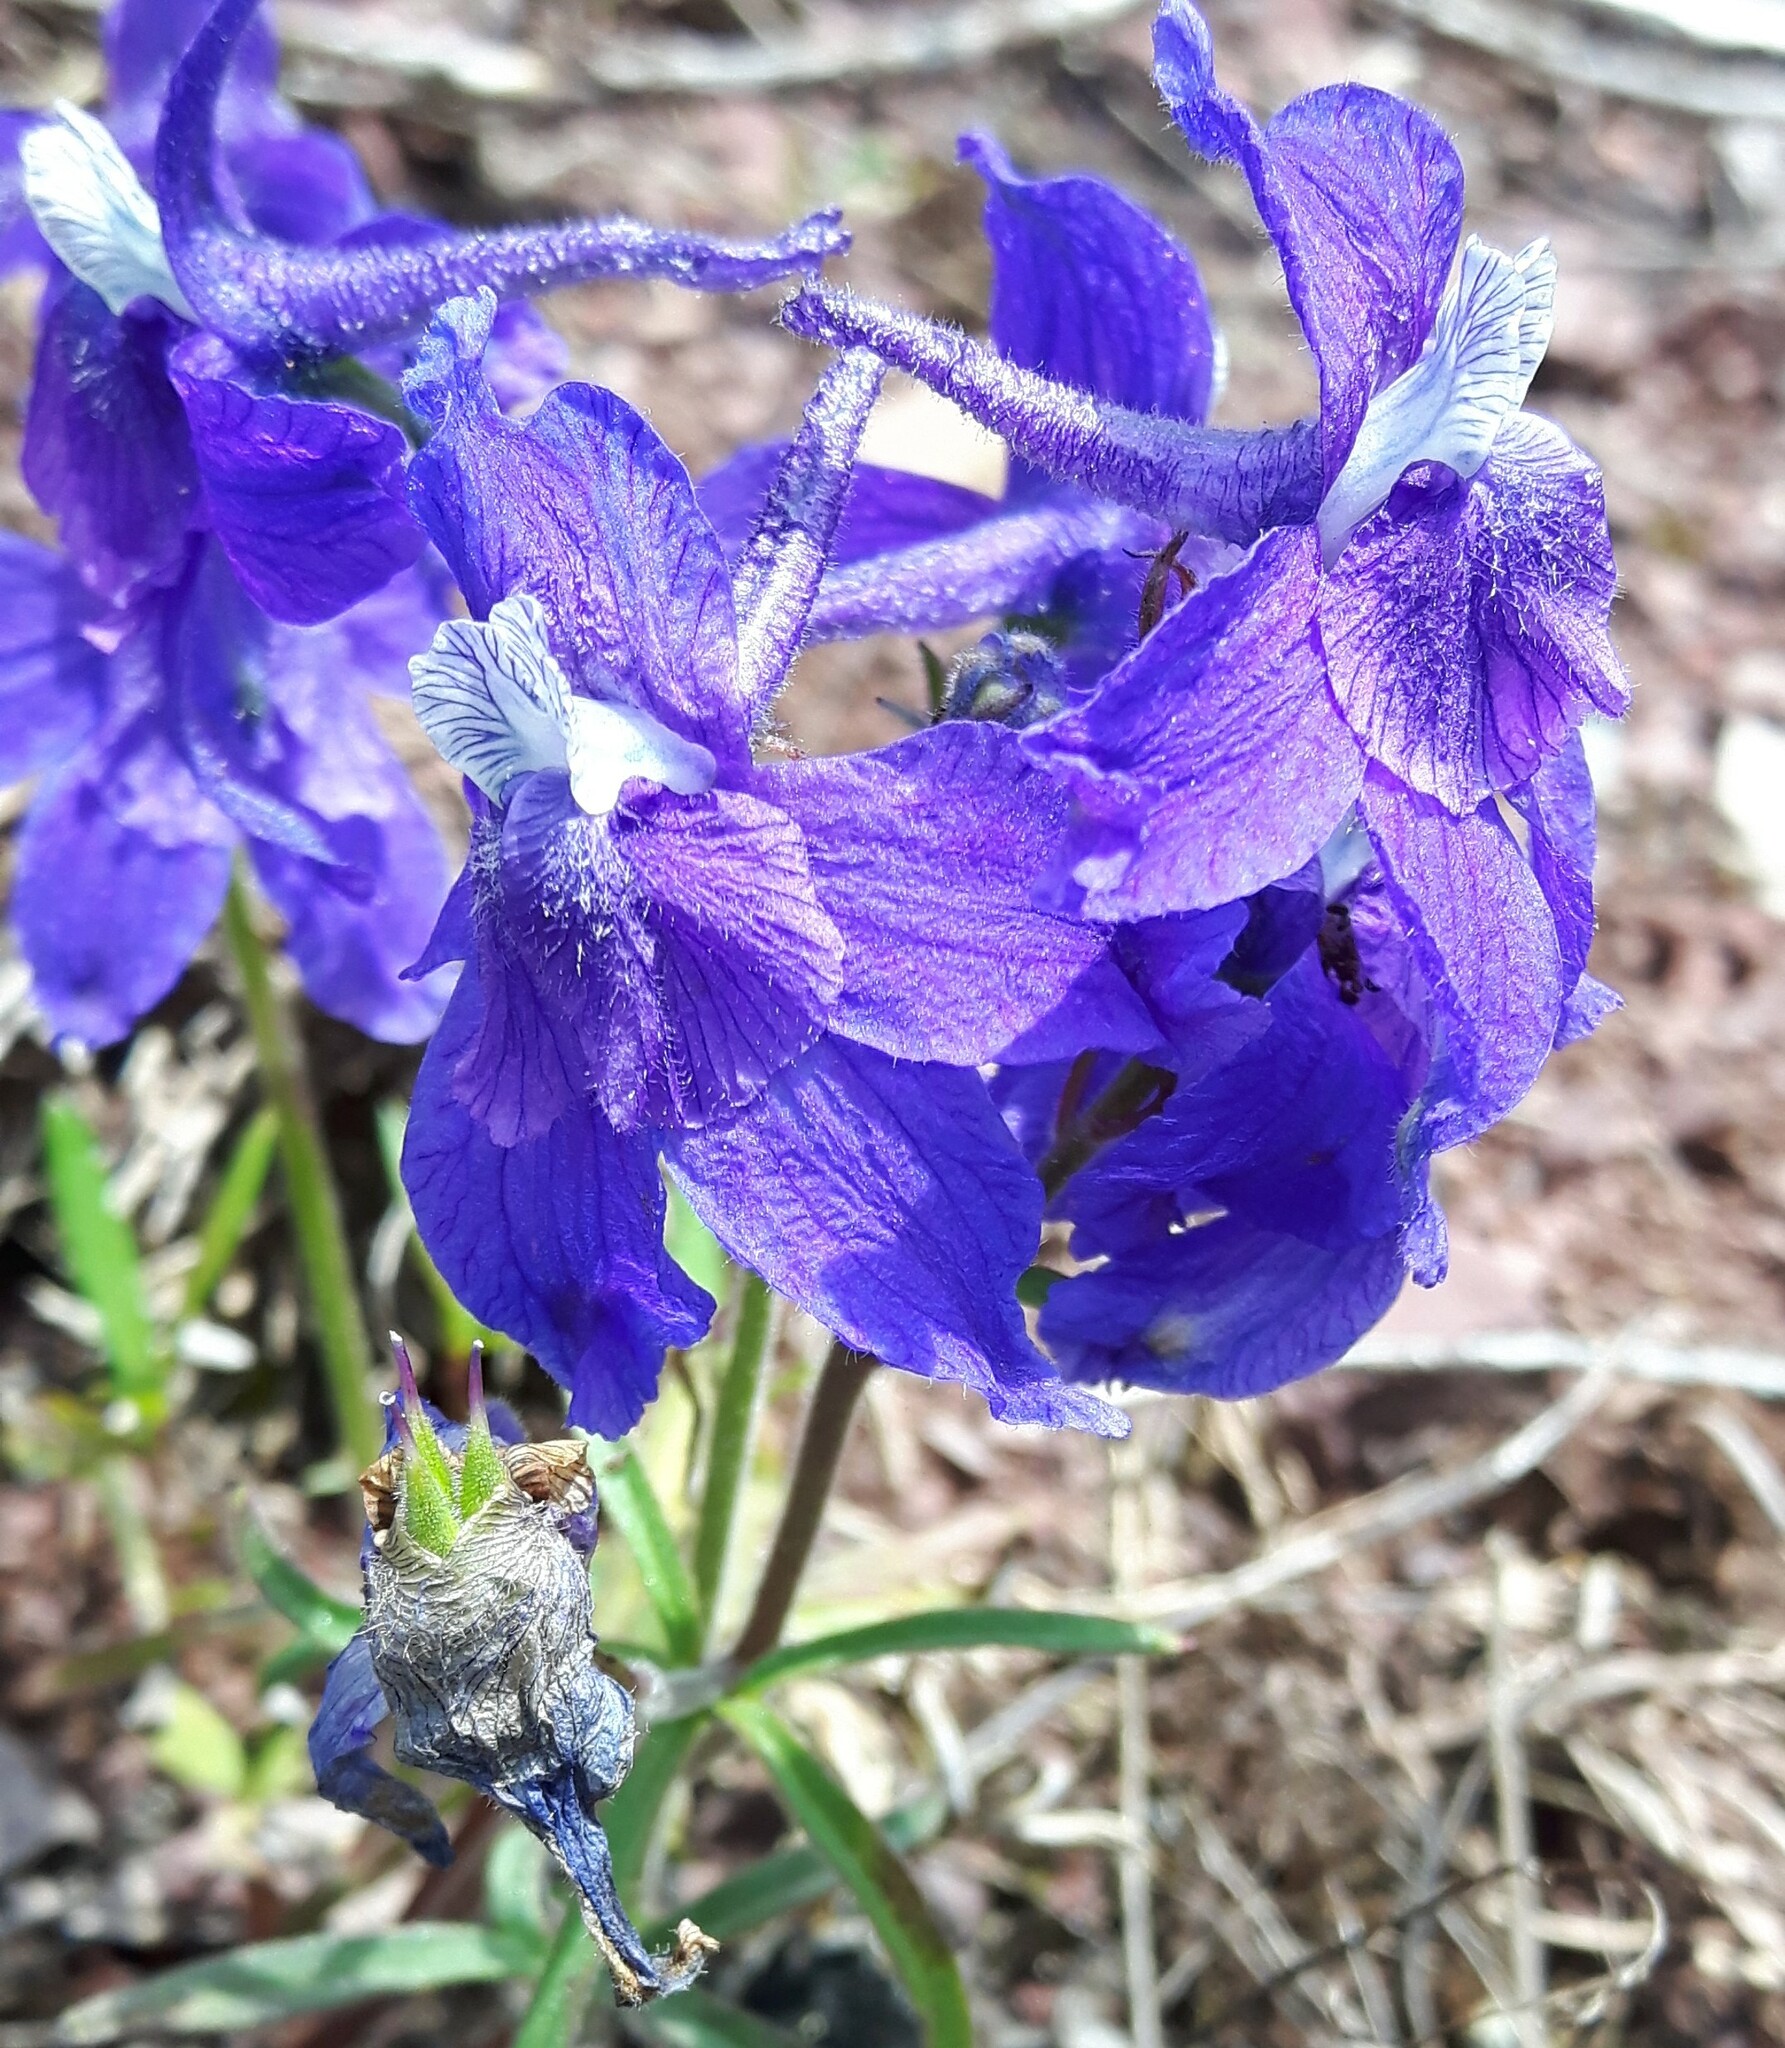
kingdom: Plantae
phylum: Tracheophyta
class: Magnoliopsida
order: Ranunculales
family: Ranunculaceae
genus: Delphinium
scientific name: Delphinium bicolor
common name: Low larkspur
